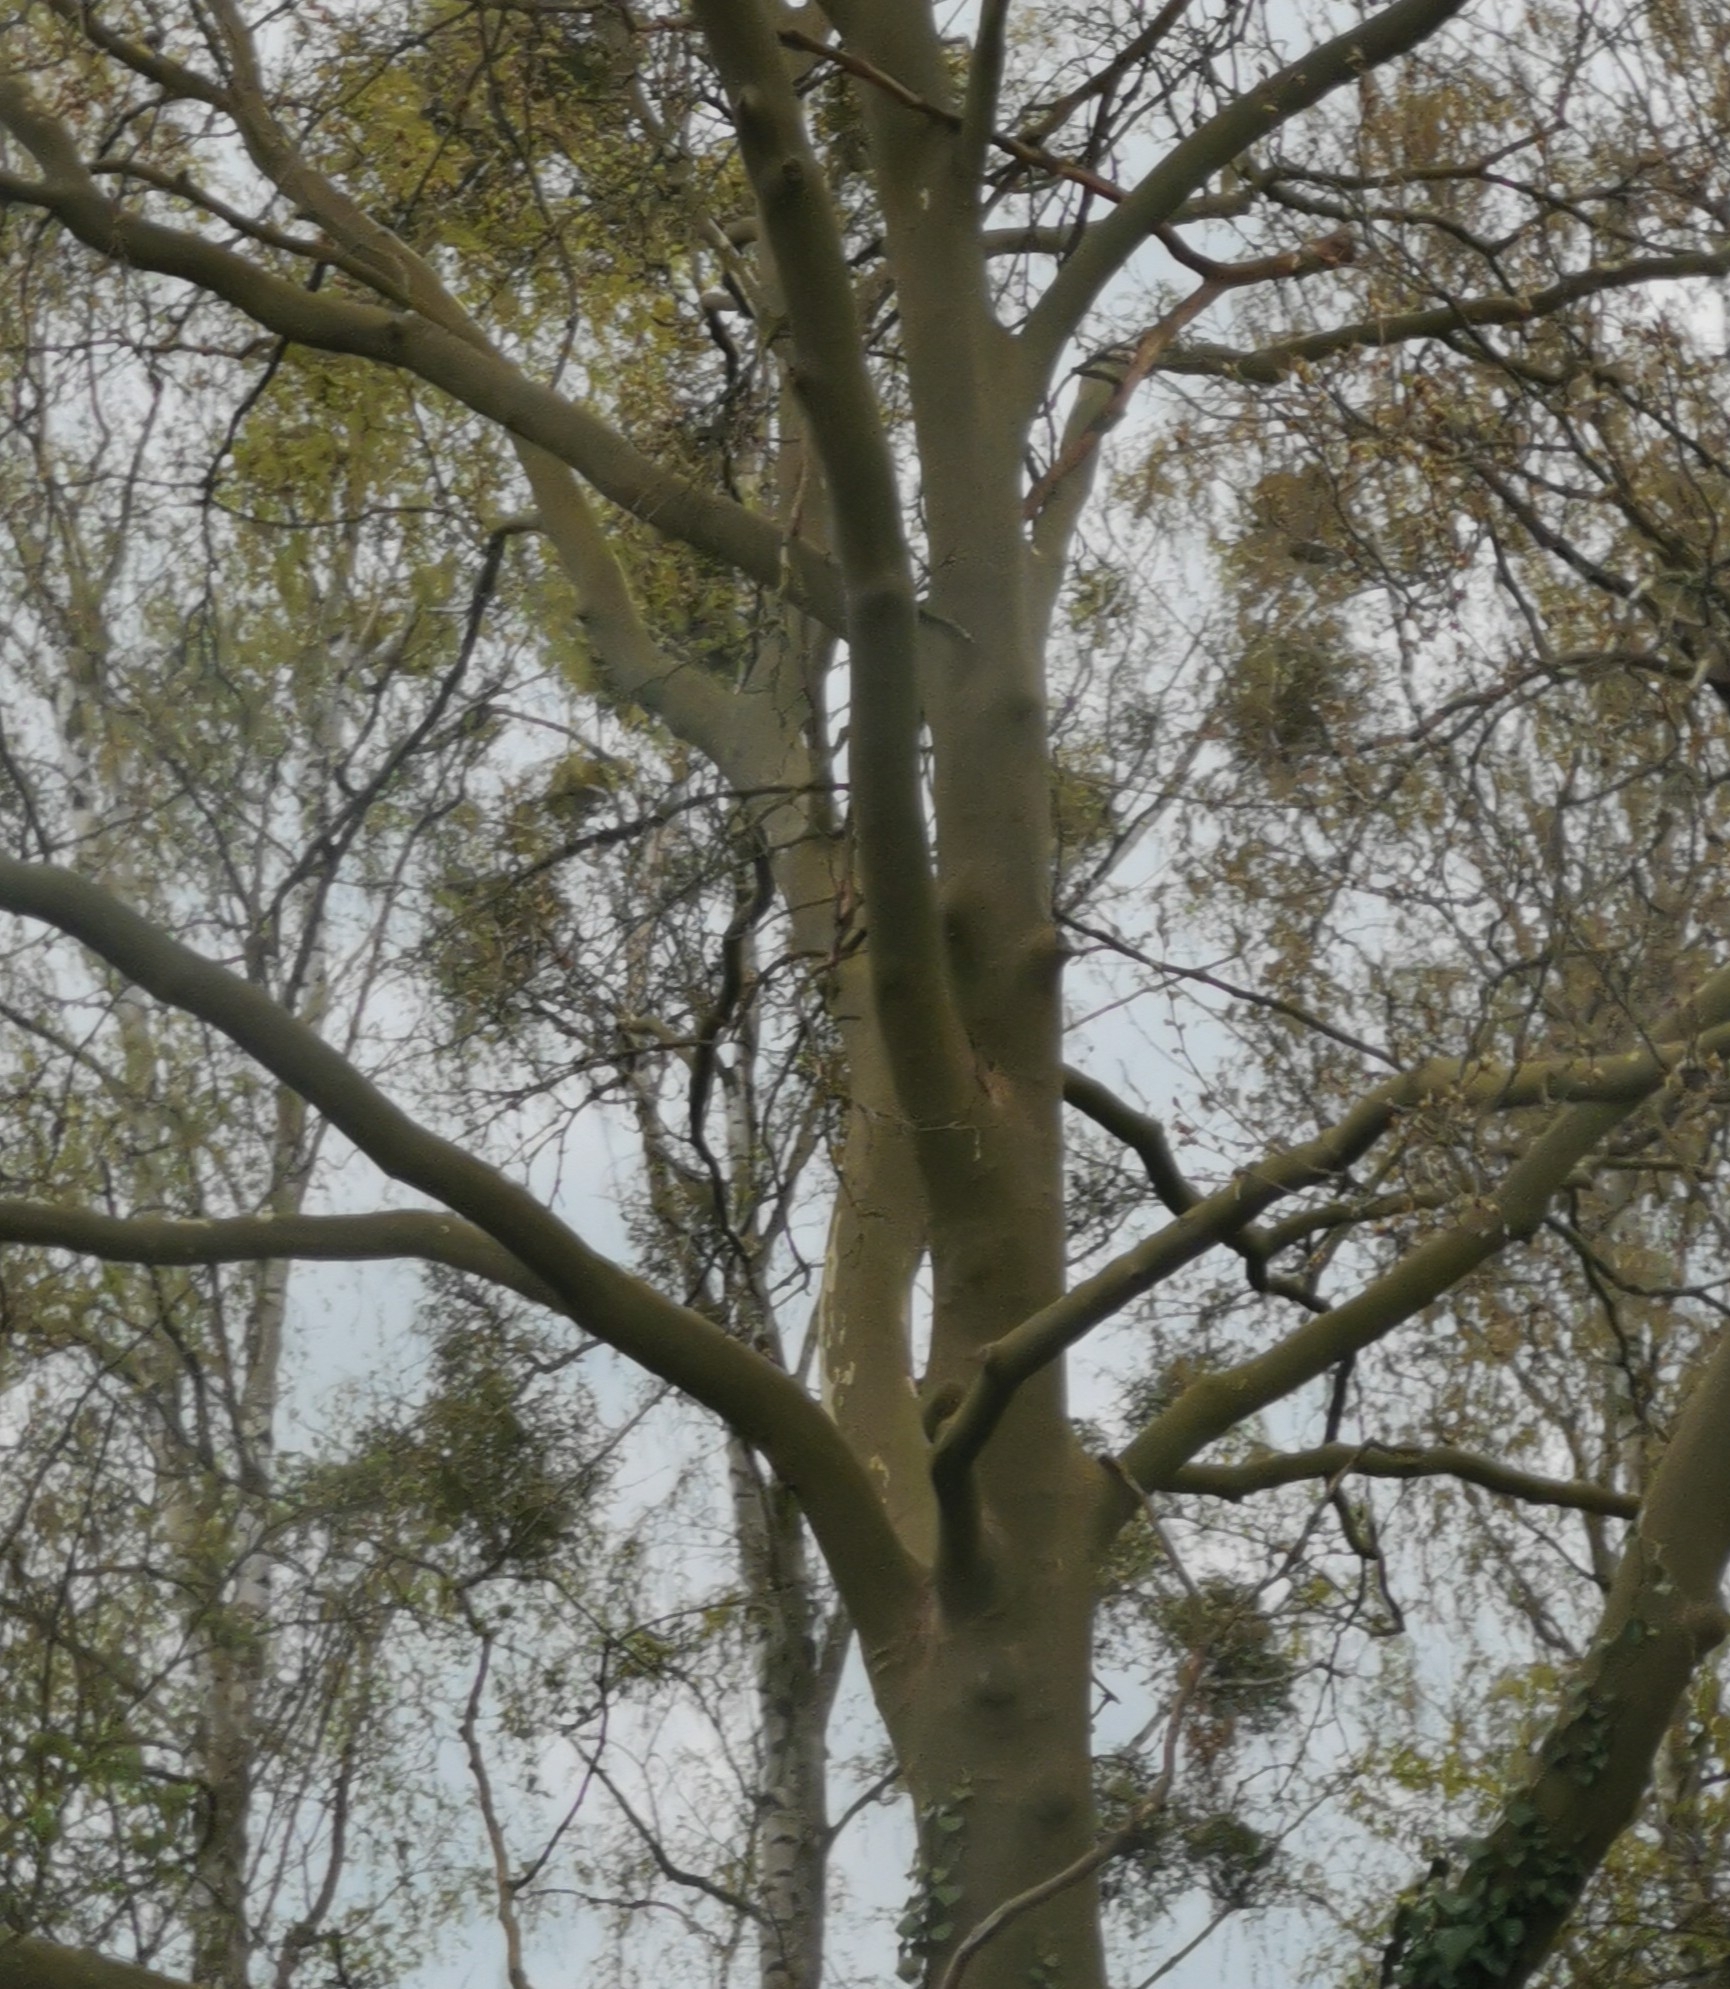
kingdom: Plantae
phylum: Tracheophyta
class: Magnoliopsida
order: Santalales
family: Viscaceae
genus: Viscum
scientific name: Viscum album
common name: Mistletoe
